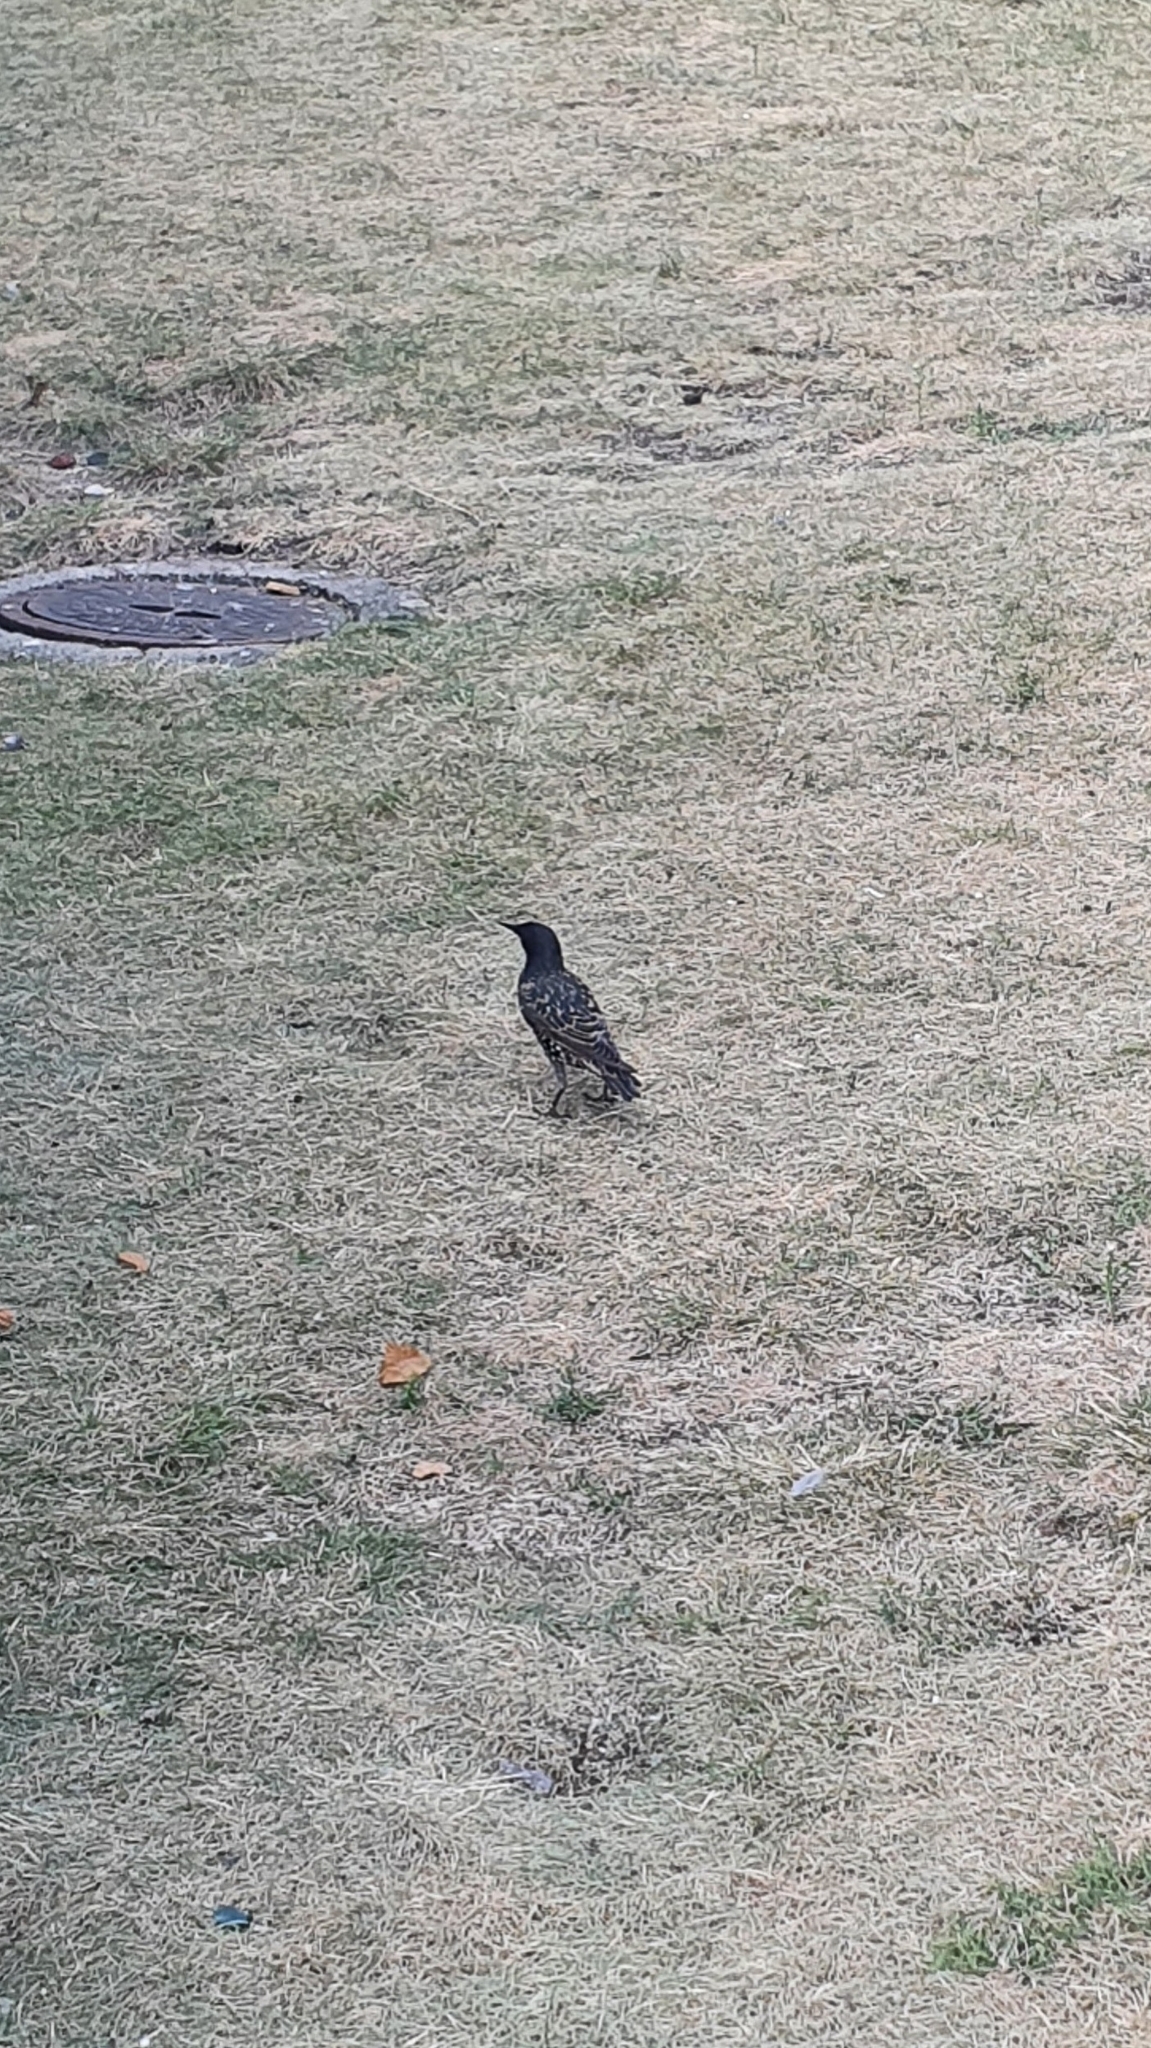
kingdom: Animalia
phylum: Chordata
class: Aves
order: Passeriformes
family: Sturnidae
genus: Sturnus
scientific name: Sturnus vulgaris
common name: Common starling
